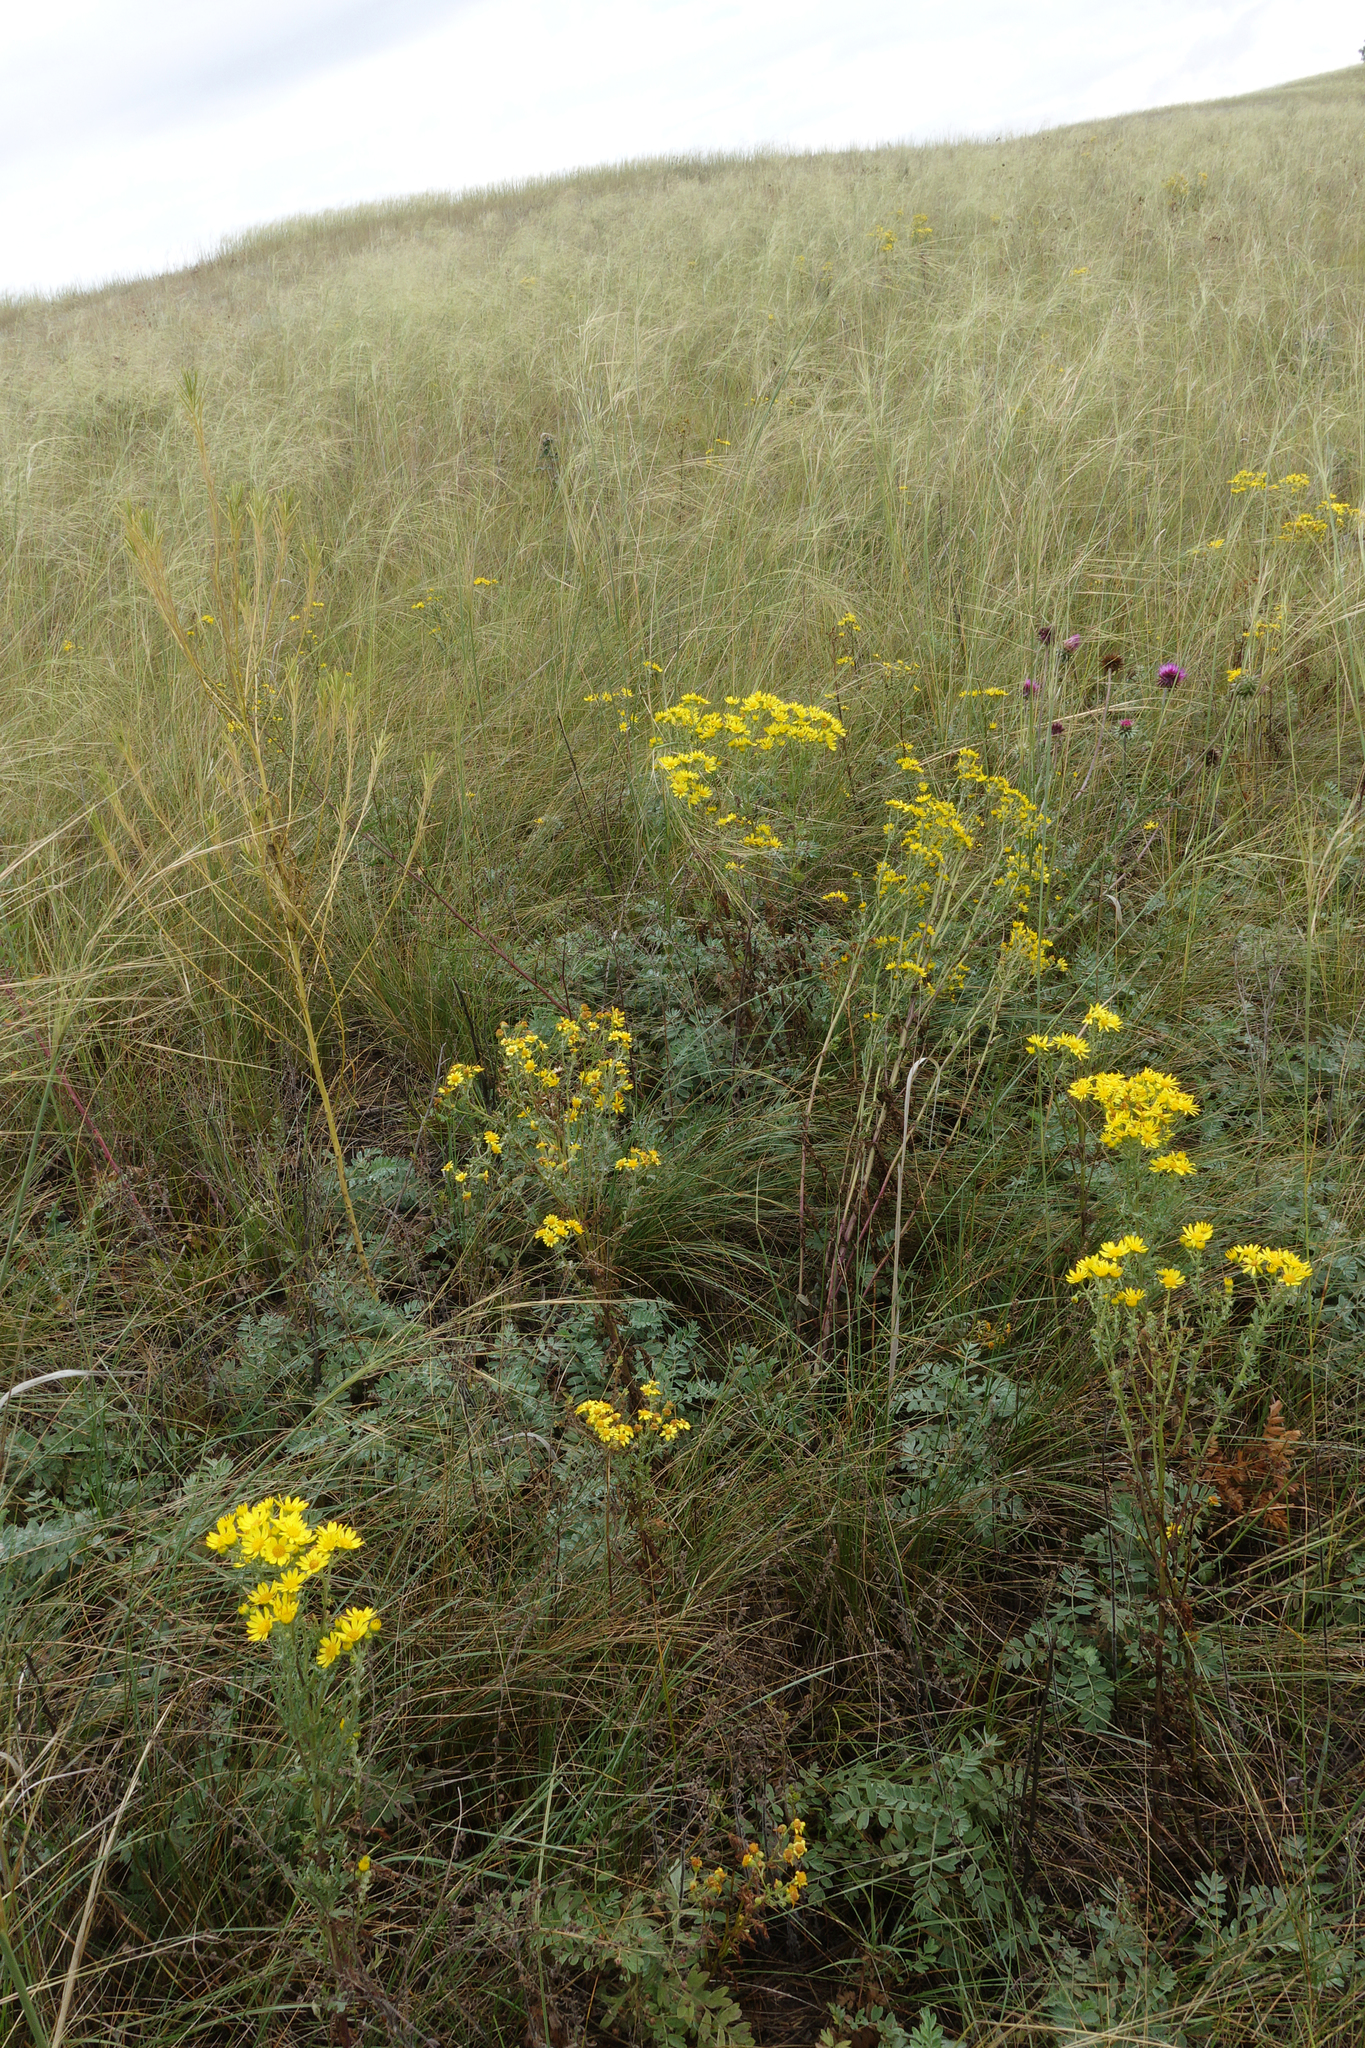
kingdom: Plantae
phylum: Tracheophyta
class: Magnoliopsida
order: Asterales
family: Asteraceae
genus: Jacobaea
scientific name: Jacobaea vulgaris
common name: Stinking willie
